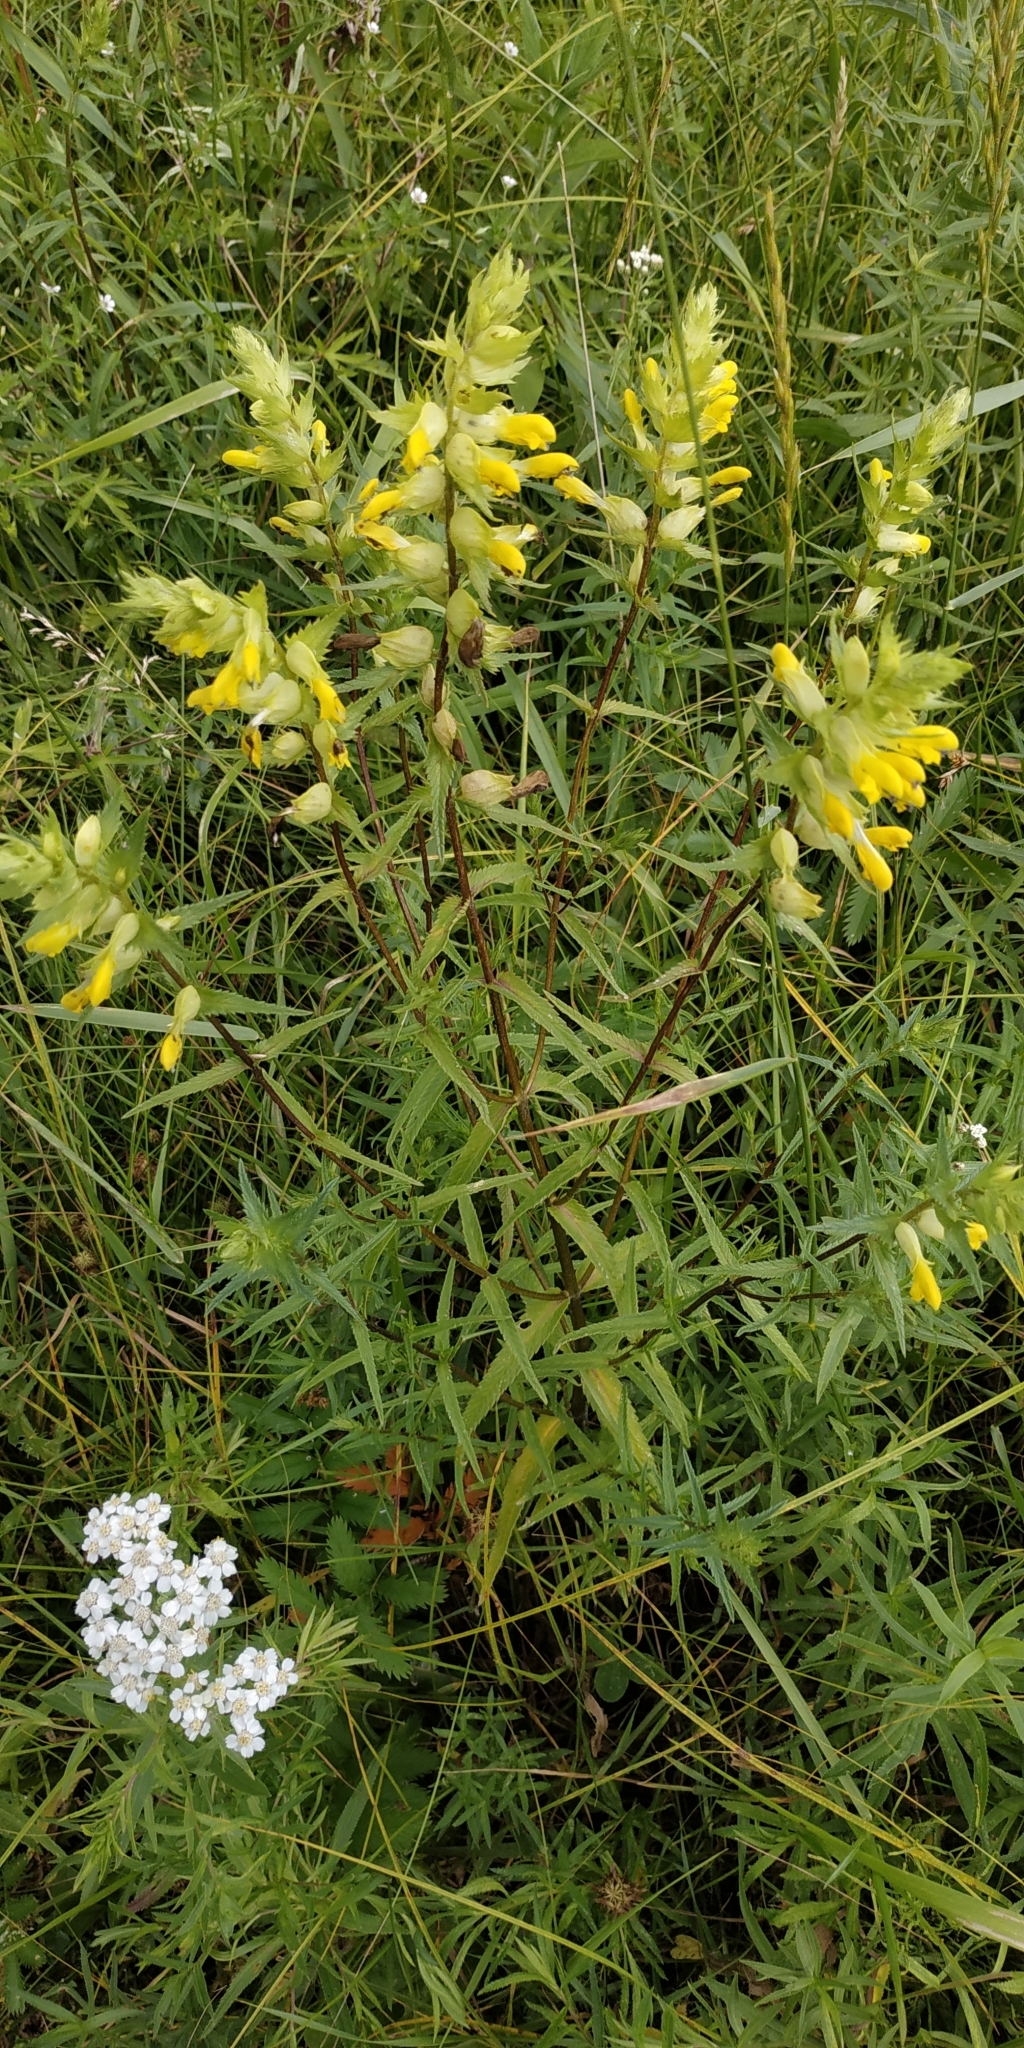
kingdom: Plantae
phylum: Tracheophyta
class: Magnoliopsida
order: Lamiales
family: Orobanchaceae
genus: Rhinanthus
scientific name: Rhinanthus serotinus
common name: Late-flowering yellow rattle
